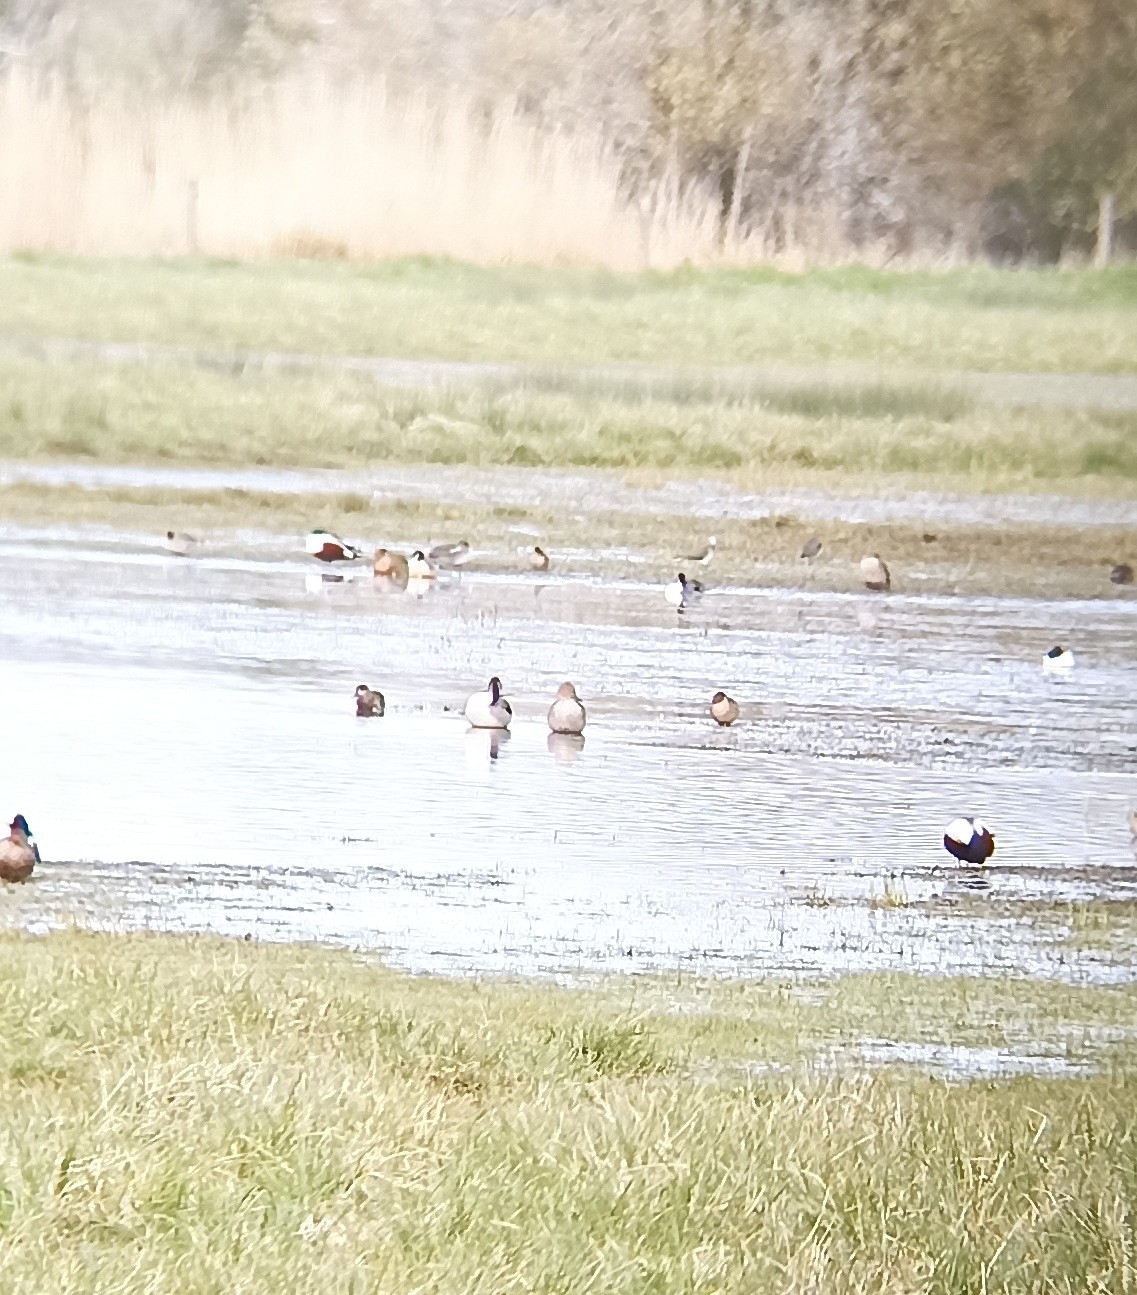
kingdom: Animalia
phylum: Chordata
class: Aves
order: Anseriformes
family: Anatidae
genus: Anas
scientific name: Anas acuta
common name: Northern pintail
